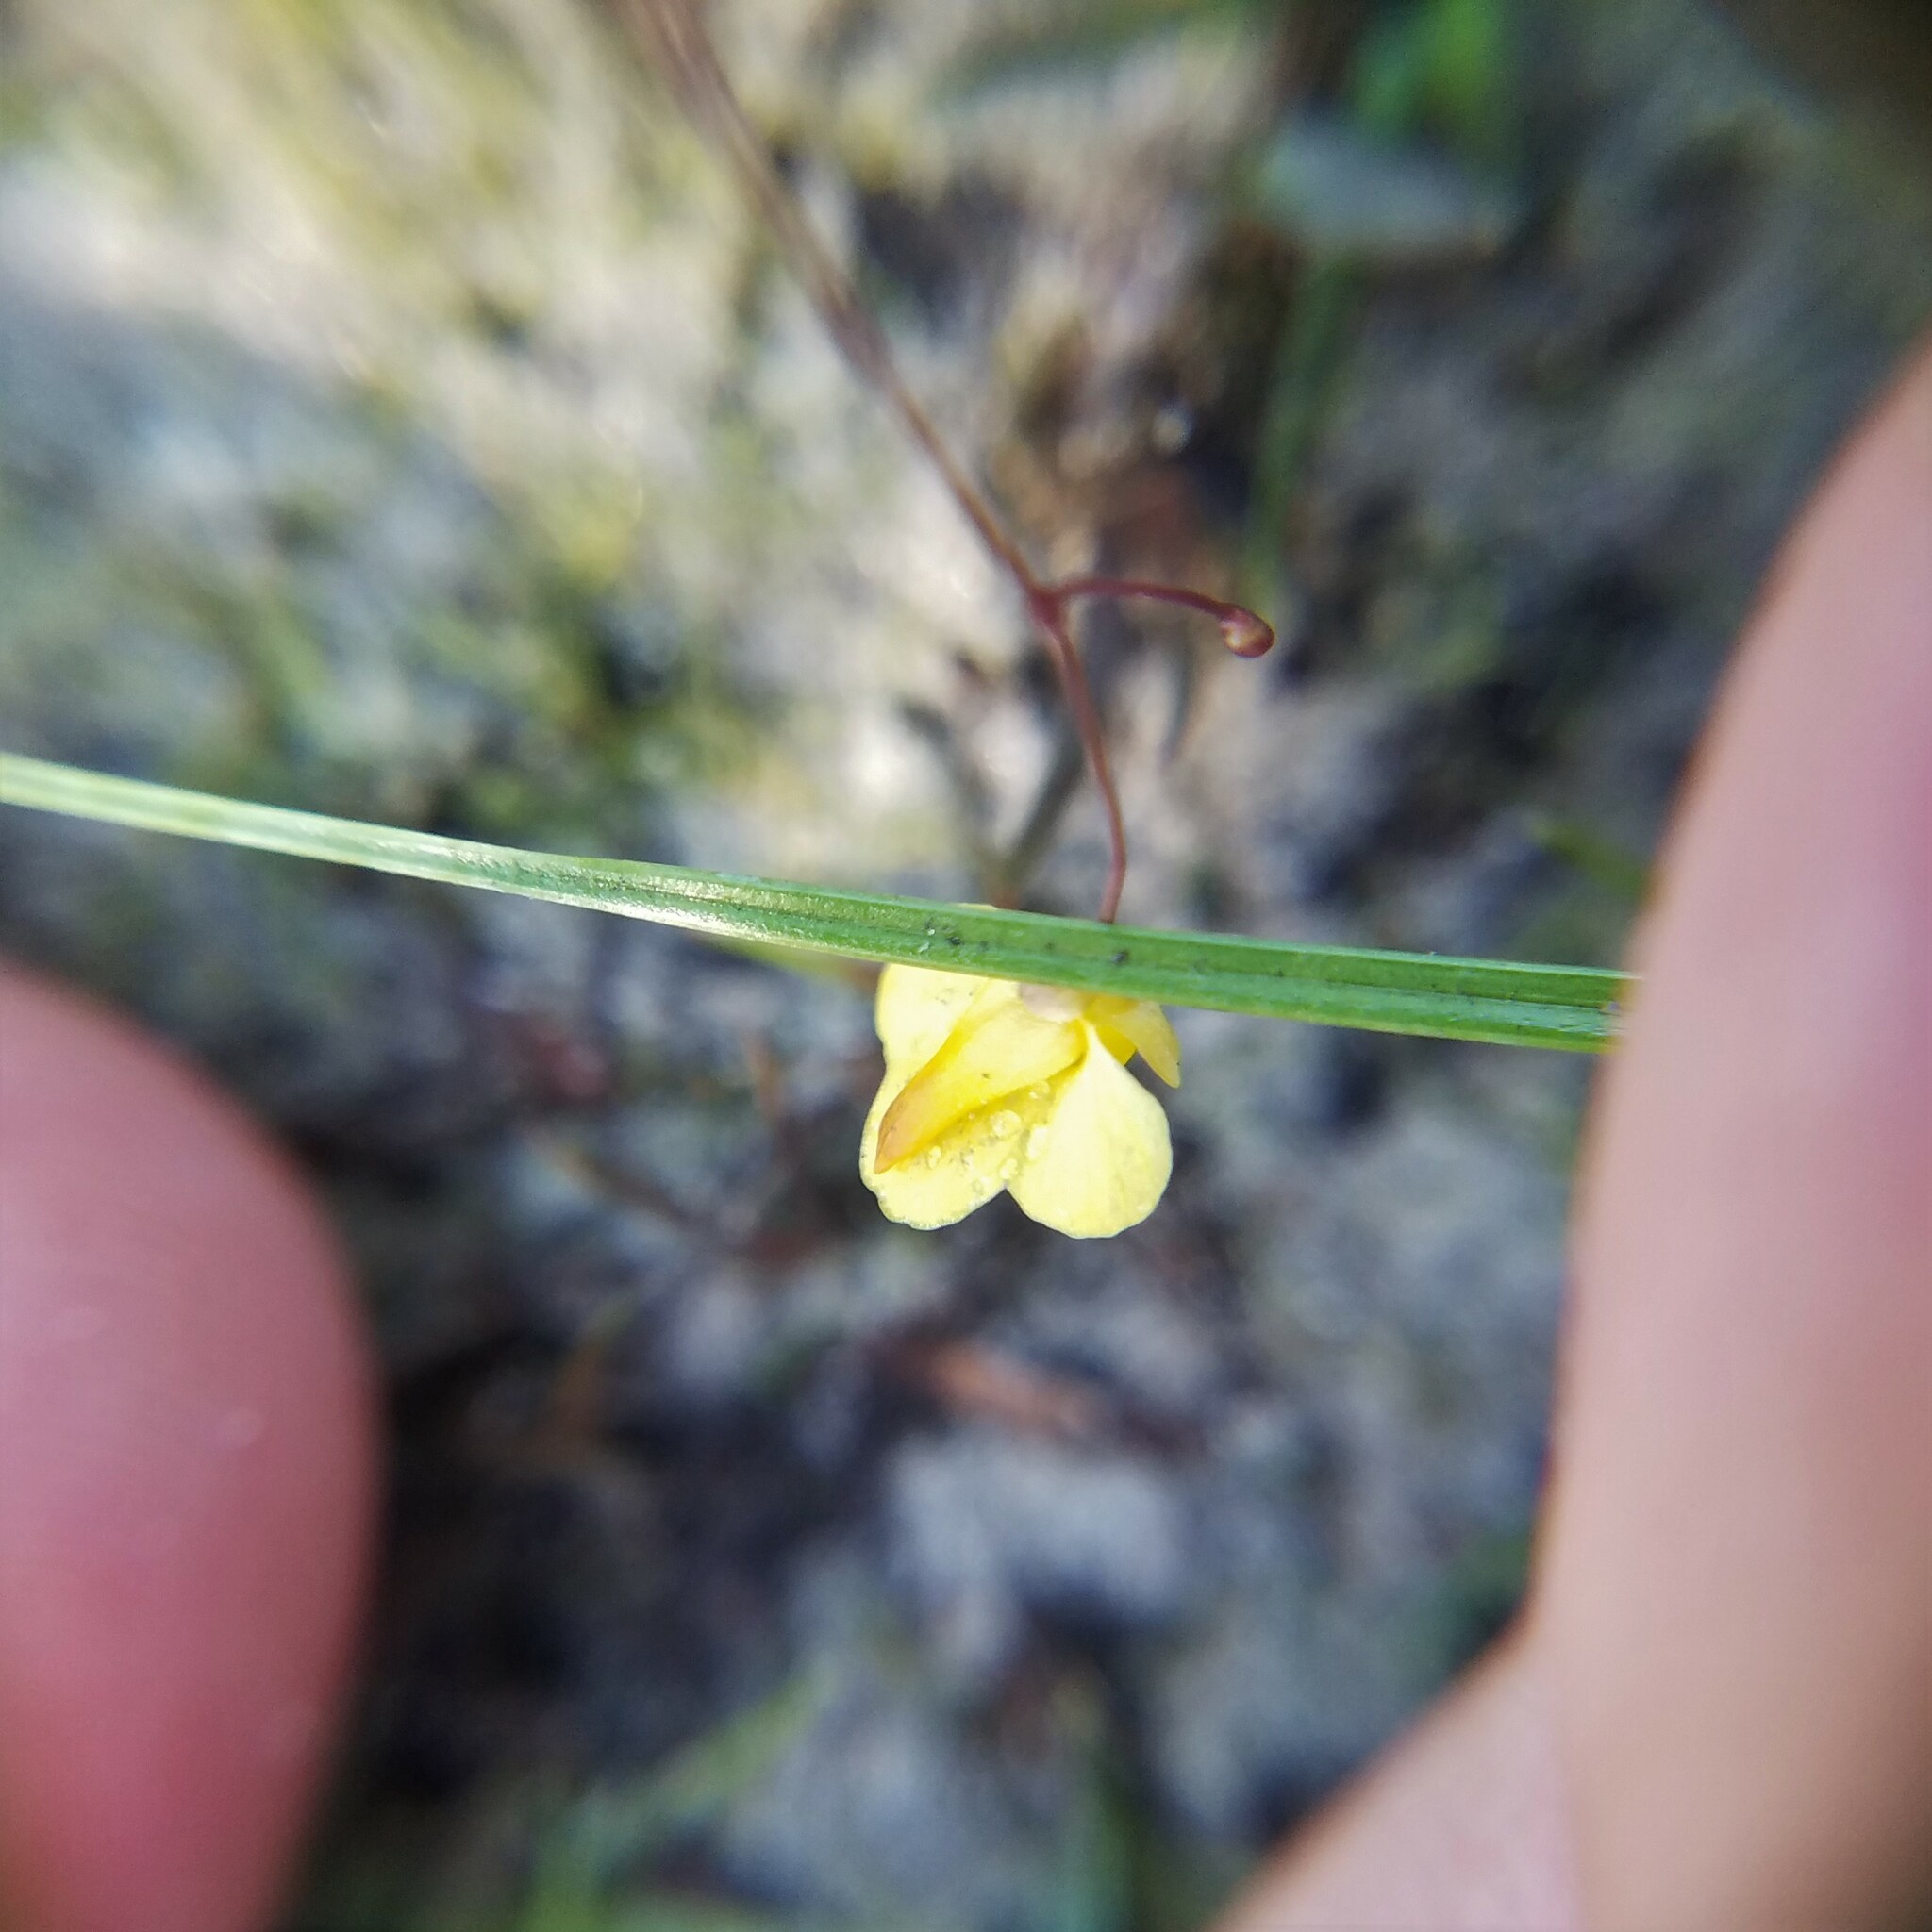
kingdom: Plantae
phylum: Tracheophyta
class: Magnoliopsida
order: Lamiales
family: Lentibulariaceae
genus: Utricularia
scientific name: Utricularia subulata
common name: Tiny bladderwort
